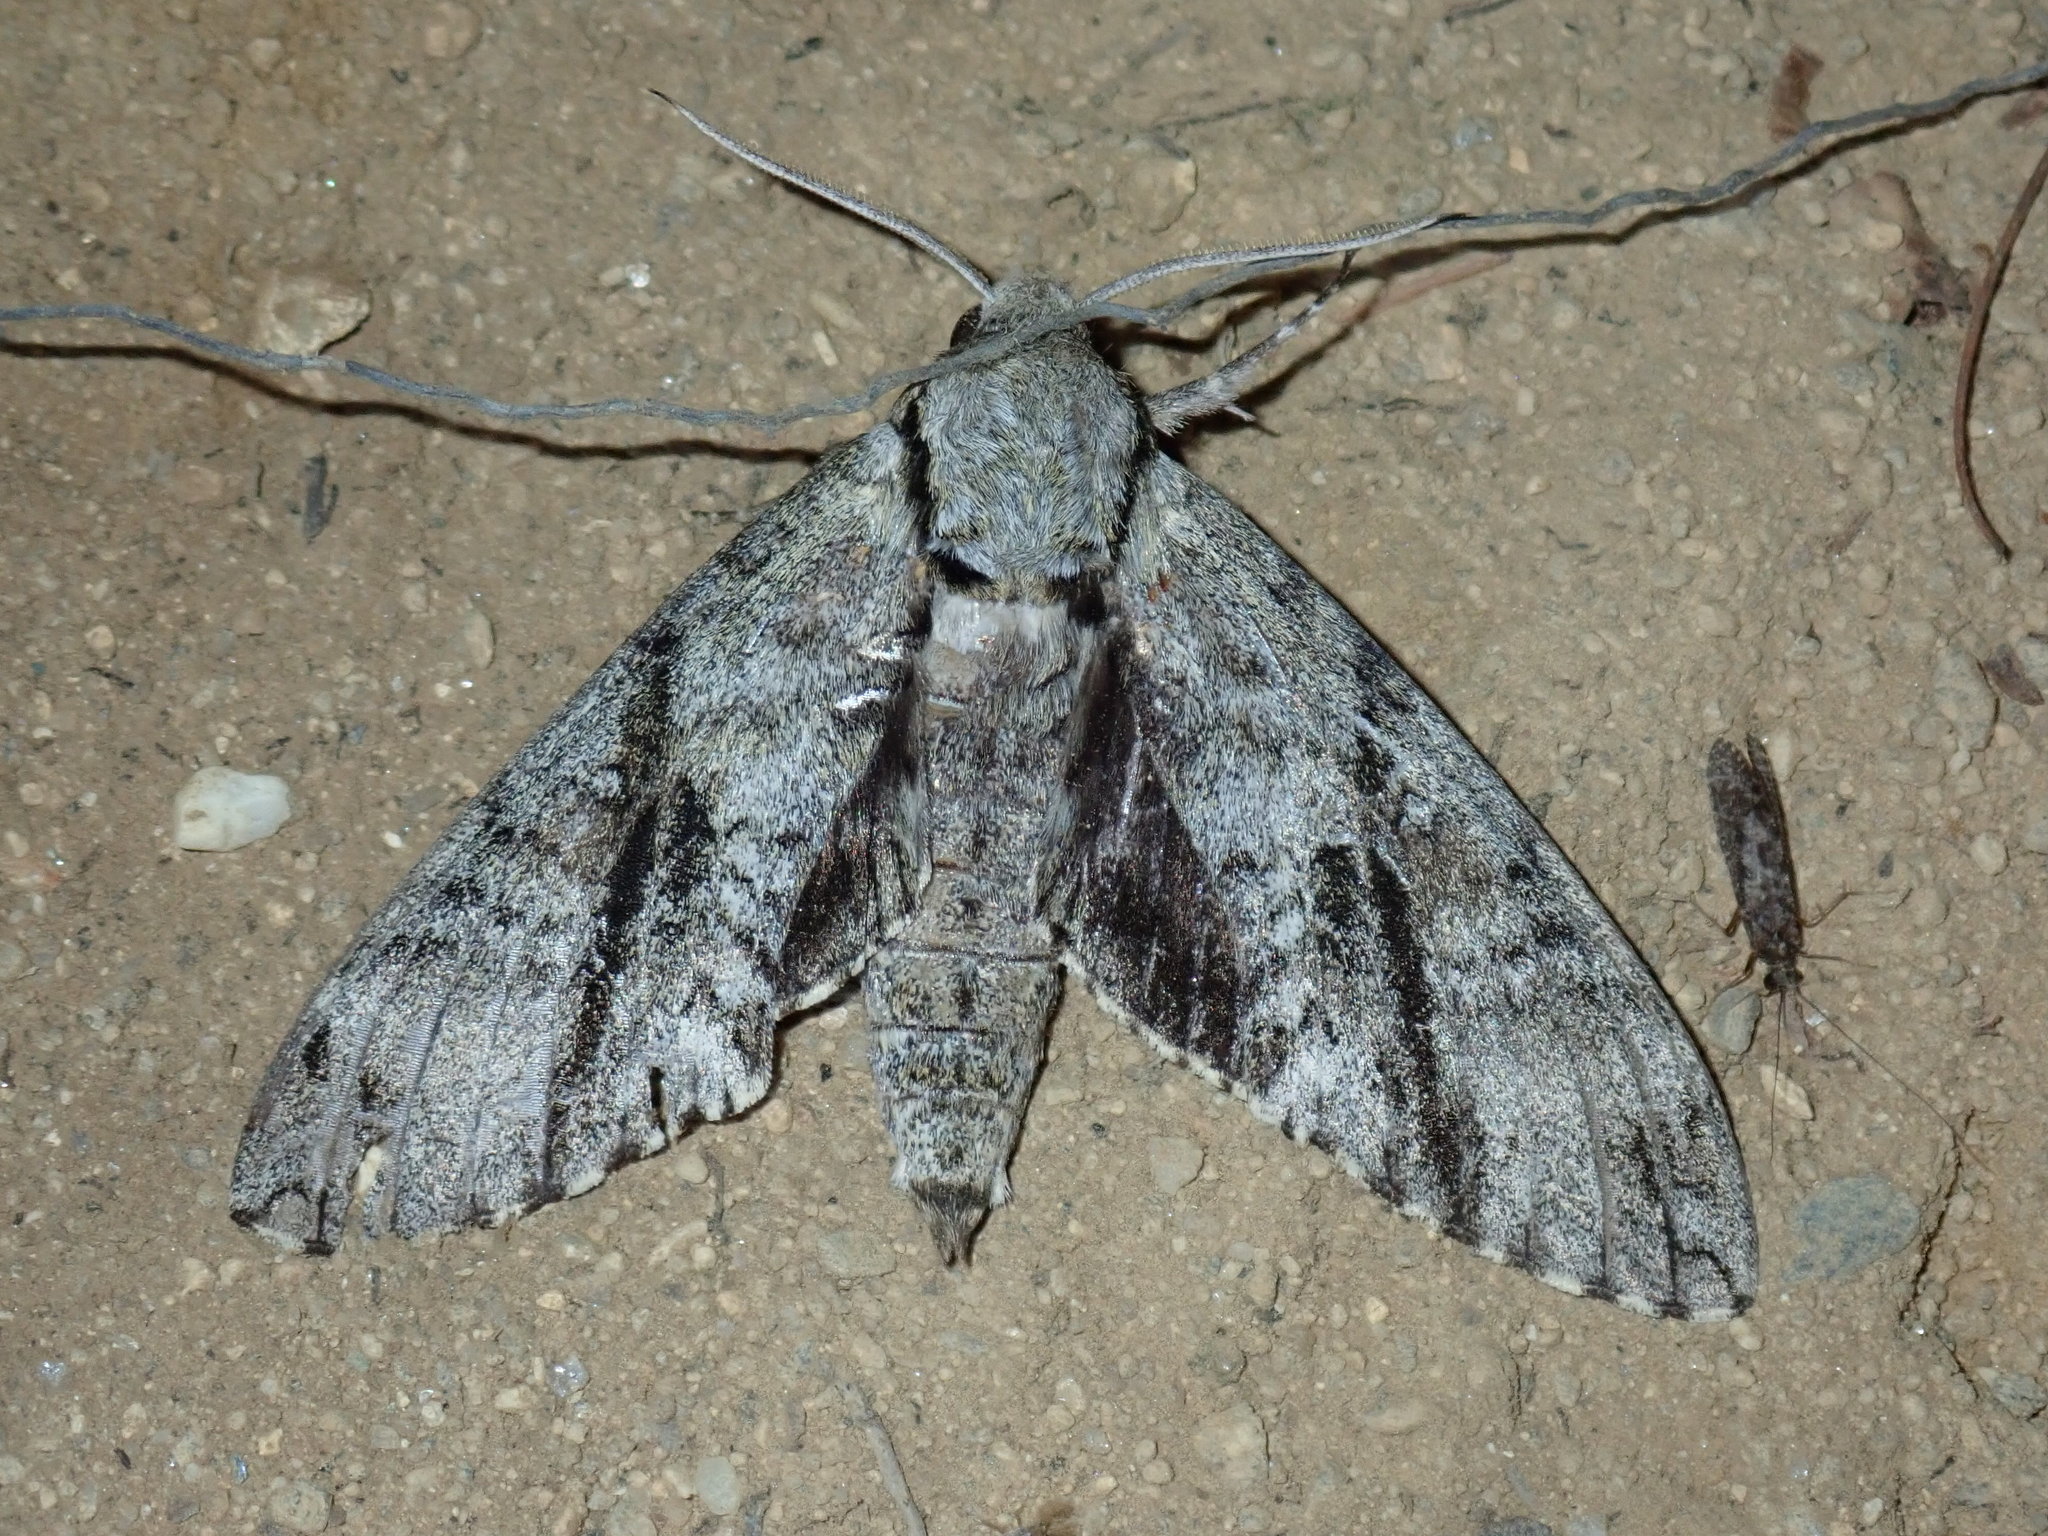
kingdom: Animalia
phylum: Arthropoda
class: Insecta
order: Lepidoptera
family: Sphingidae
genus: Manduca
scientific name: Manduca jasminearum
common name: Ash sphinx
